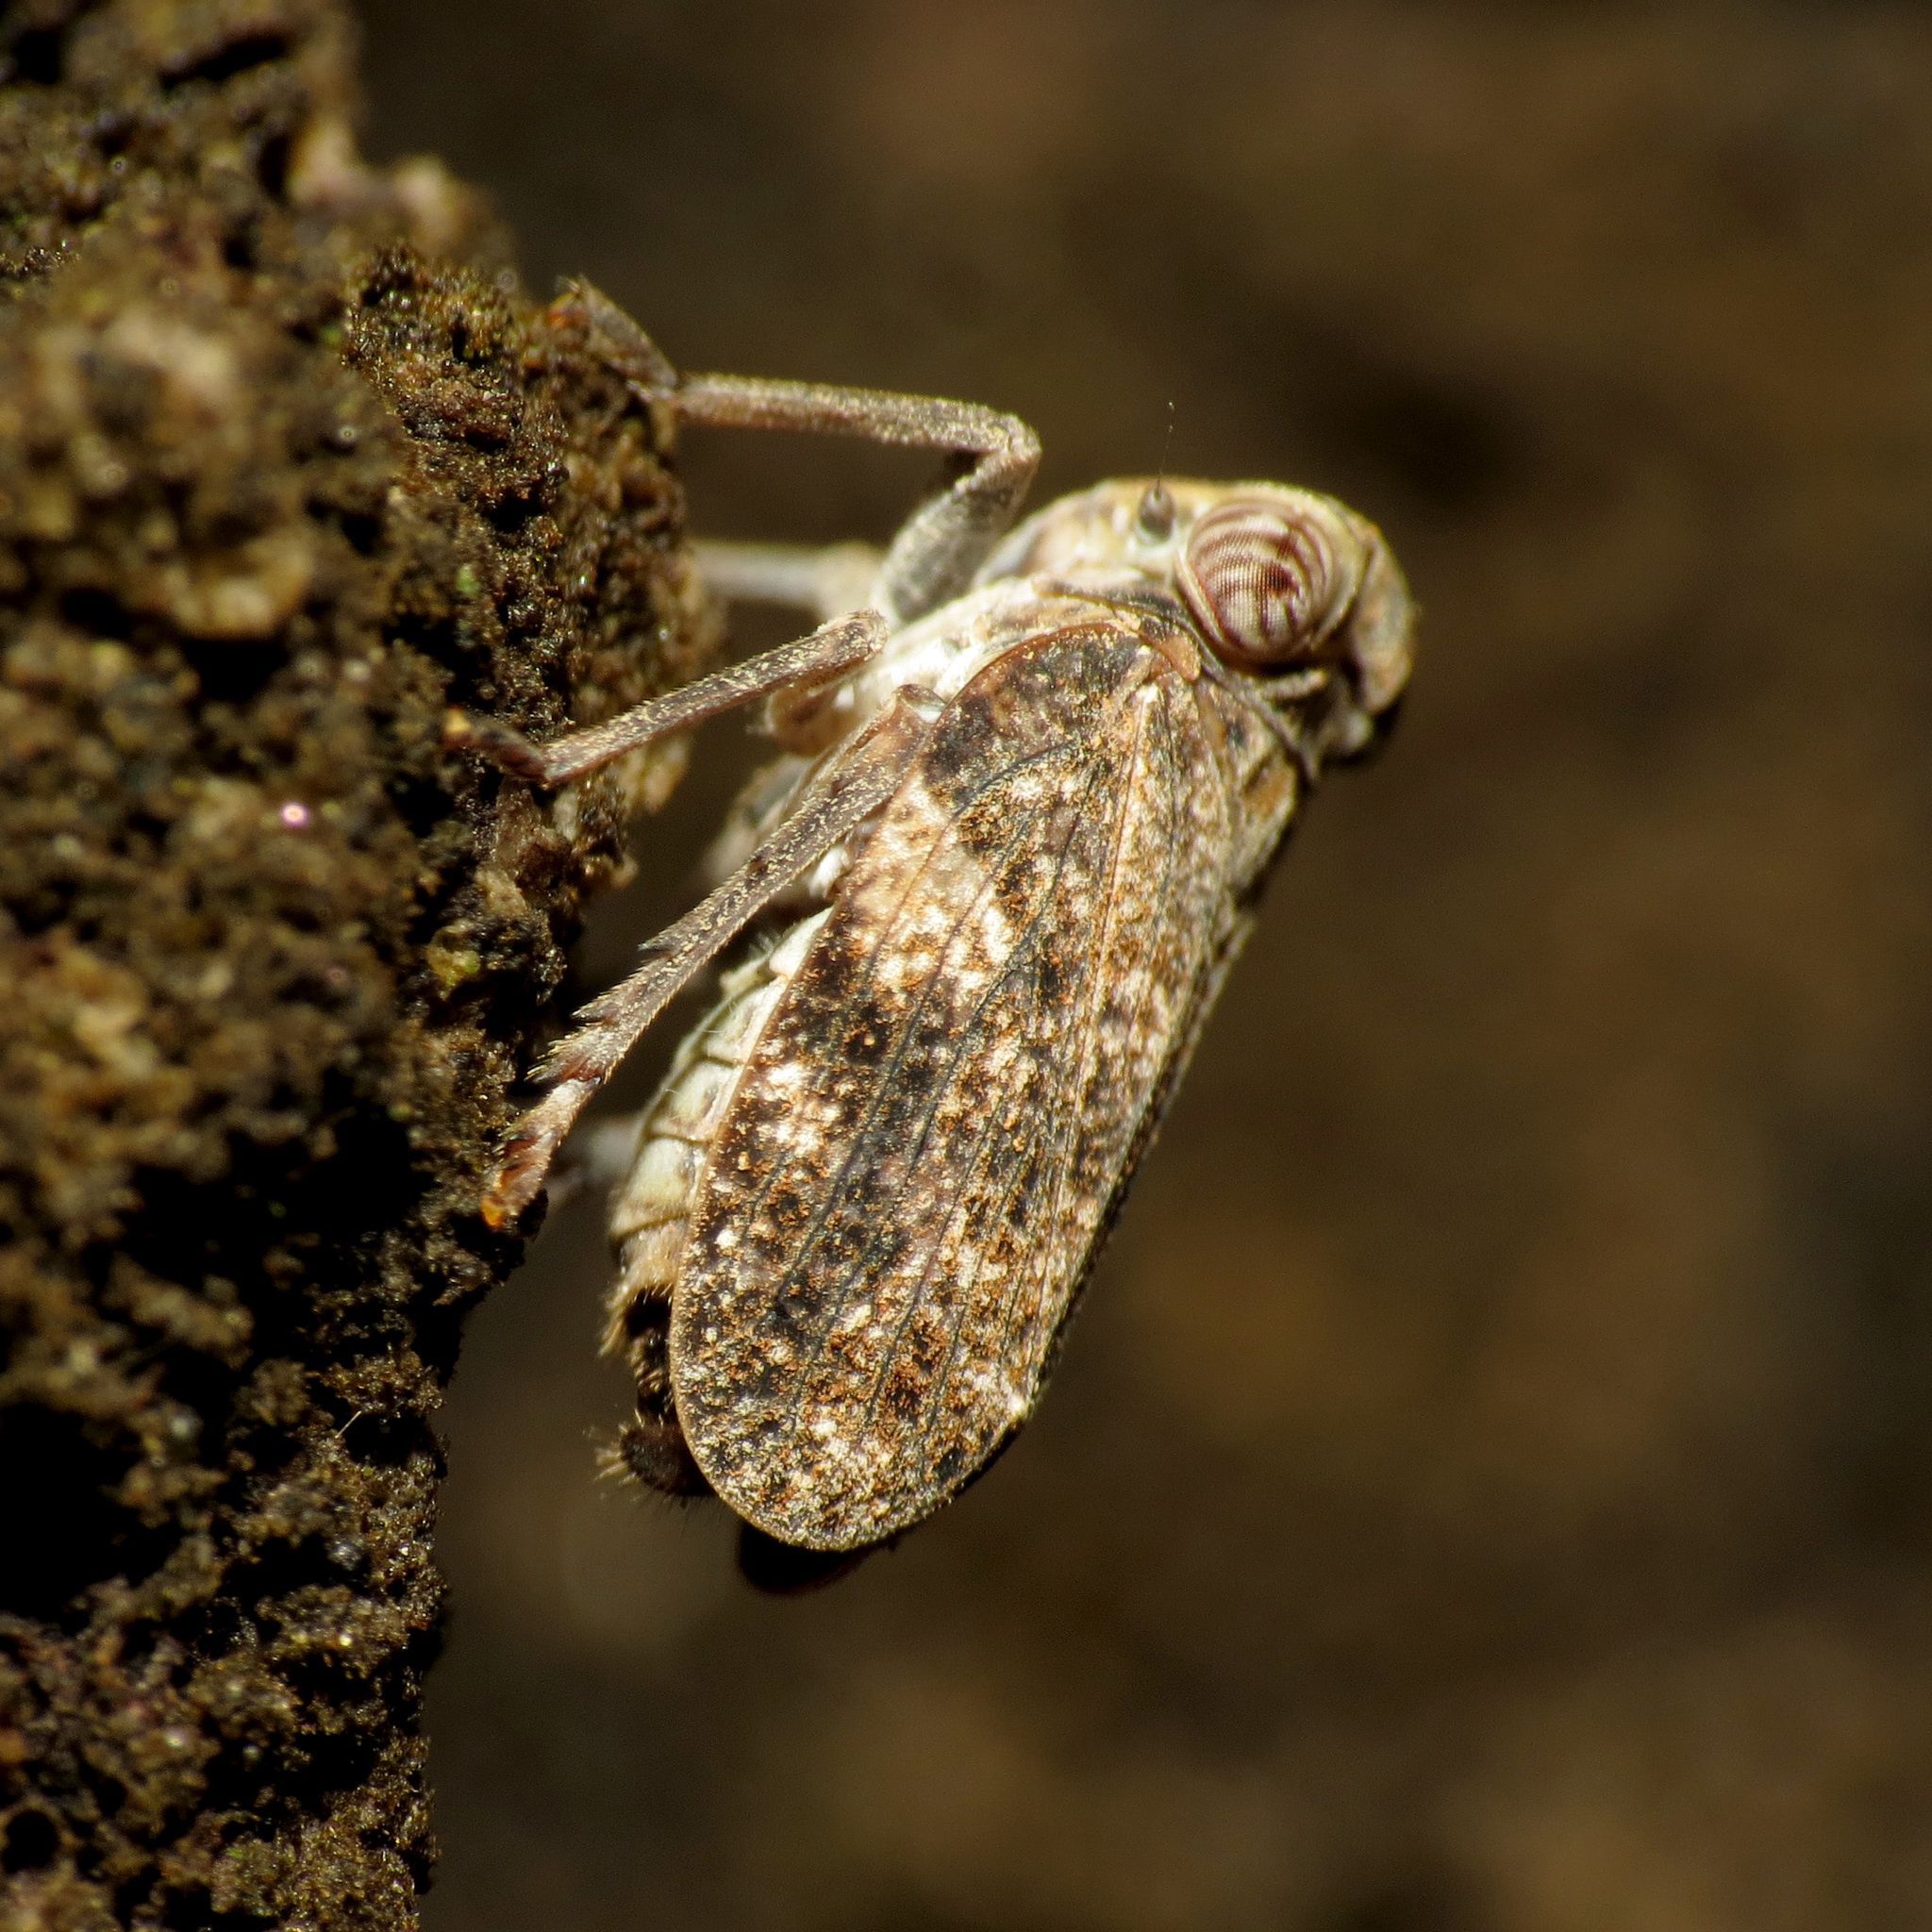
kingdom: Animalia
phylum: Arthropoda
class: Insecta
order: Hemiptera
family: Issidae
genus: Picumna
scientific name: Picumna chinai
